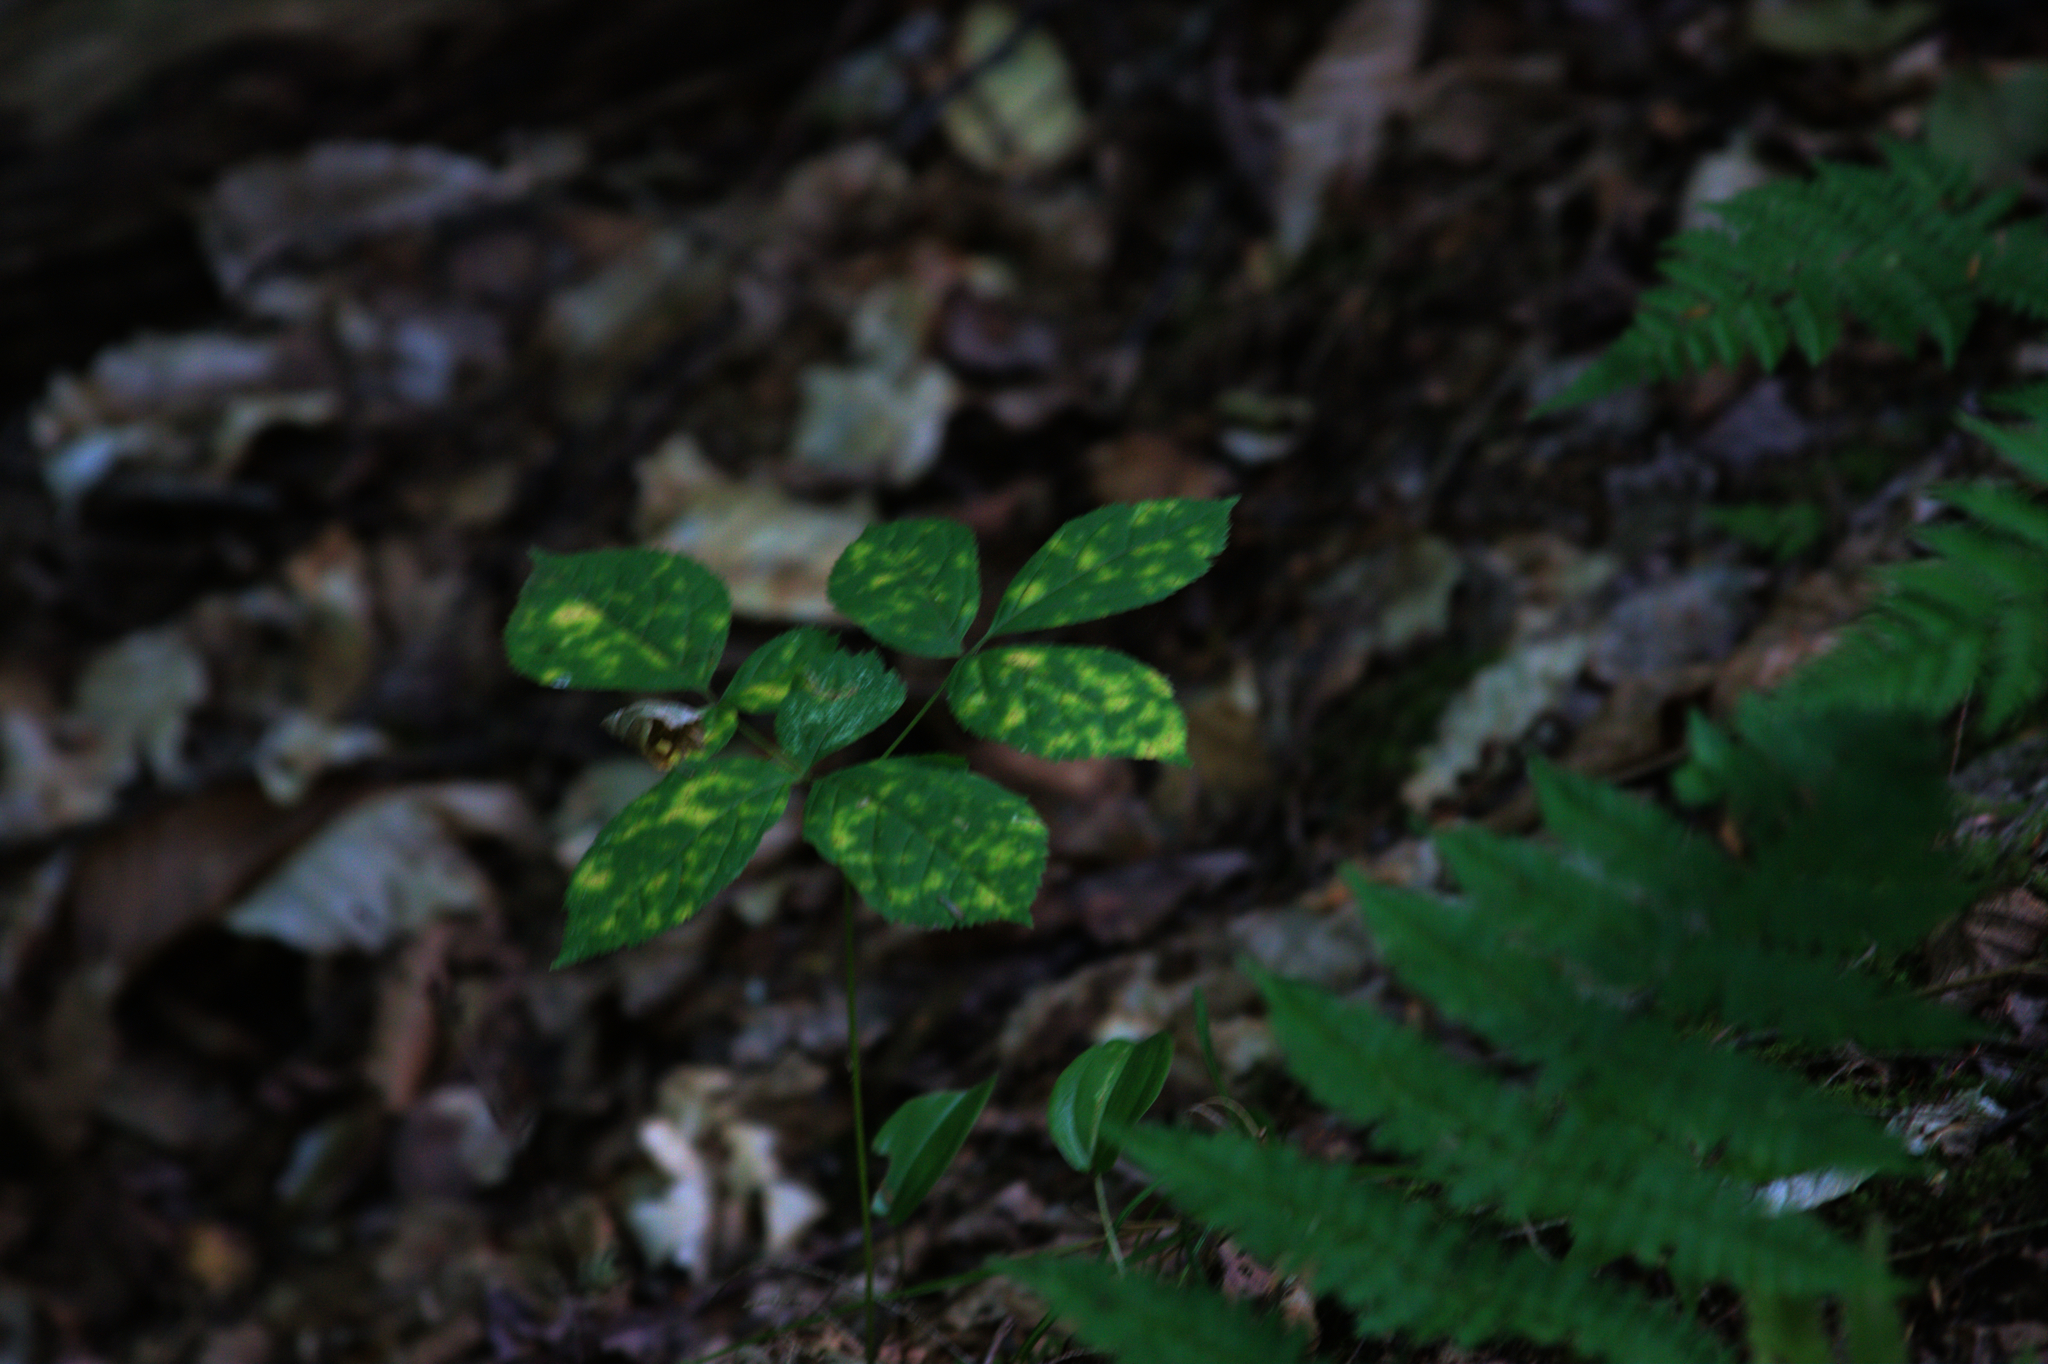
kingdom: Plantae
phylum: Tracheophyta
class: Magnoliopsida
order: Apiales
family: Araliaceae
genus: Aralia
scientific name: Aralia nudicaulis
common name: Wild sarsaparilla
